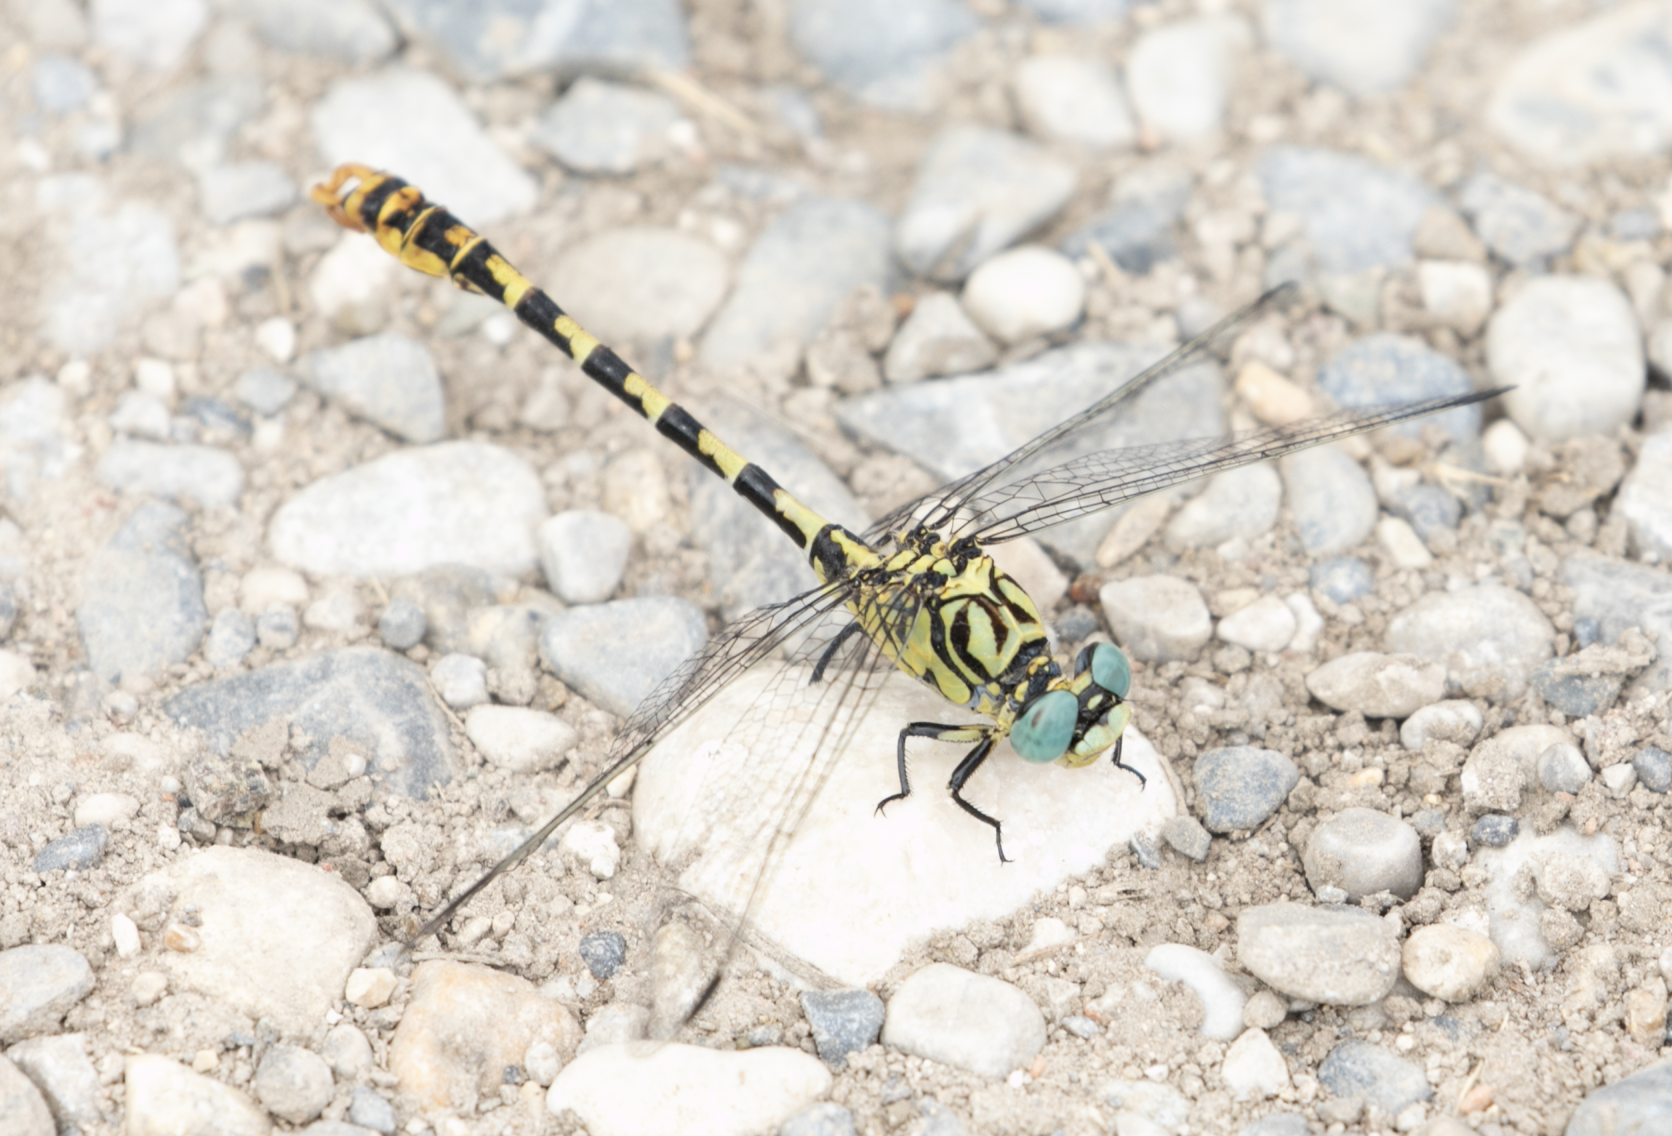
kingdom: Animalia
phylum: Arthropoda
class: Insecta
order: Odonata
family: Gomphidae
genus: Onychogomphus
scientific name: Onychogomphus forcipatus
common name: Small pincertail
